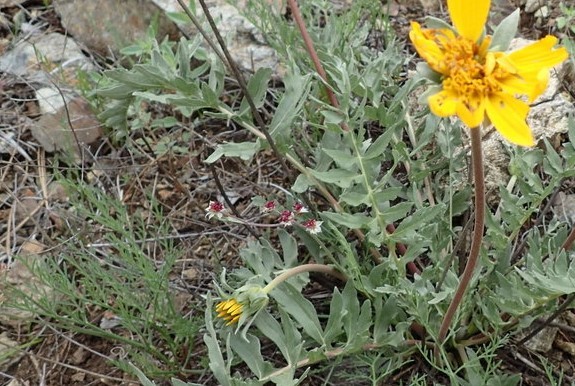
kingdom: Plantae
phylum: Tracheophyta
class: Magnoliopsida
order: Apiales
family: Apiaceae
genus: Lomatium
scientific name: Lomatium hooveri
